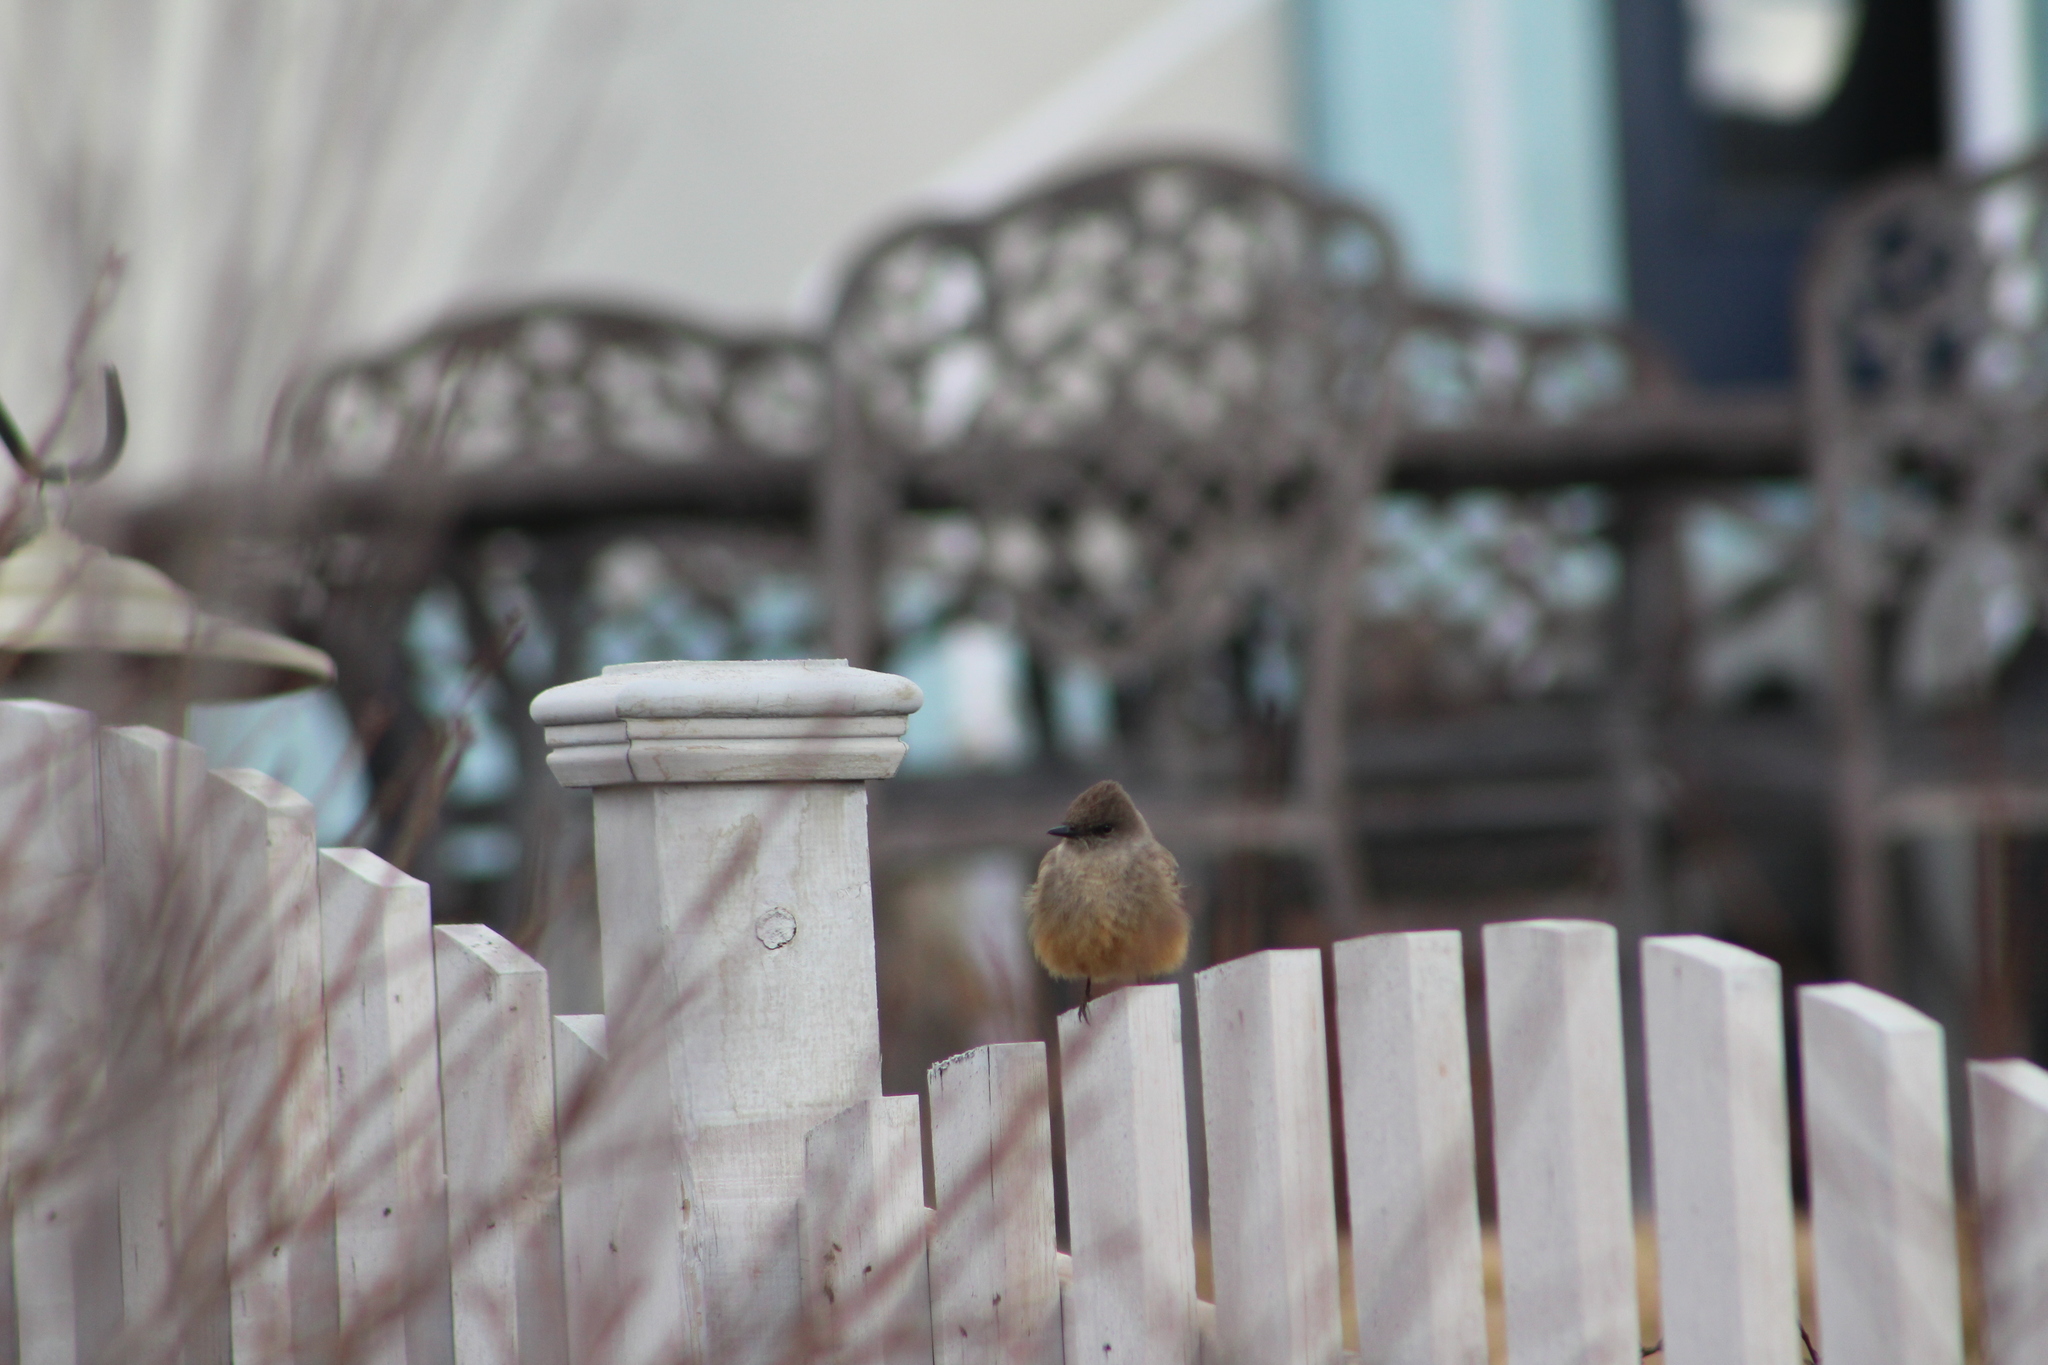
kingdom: Animalia
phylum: Chordata
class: Aves
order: Passeriformes
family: Tyrannidae
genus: Sayornis
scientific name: Sayornis saya
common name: Say's phoebe
